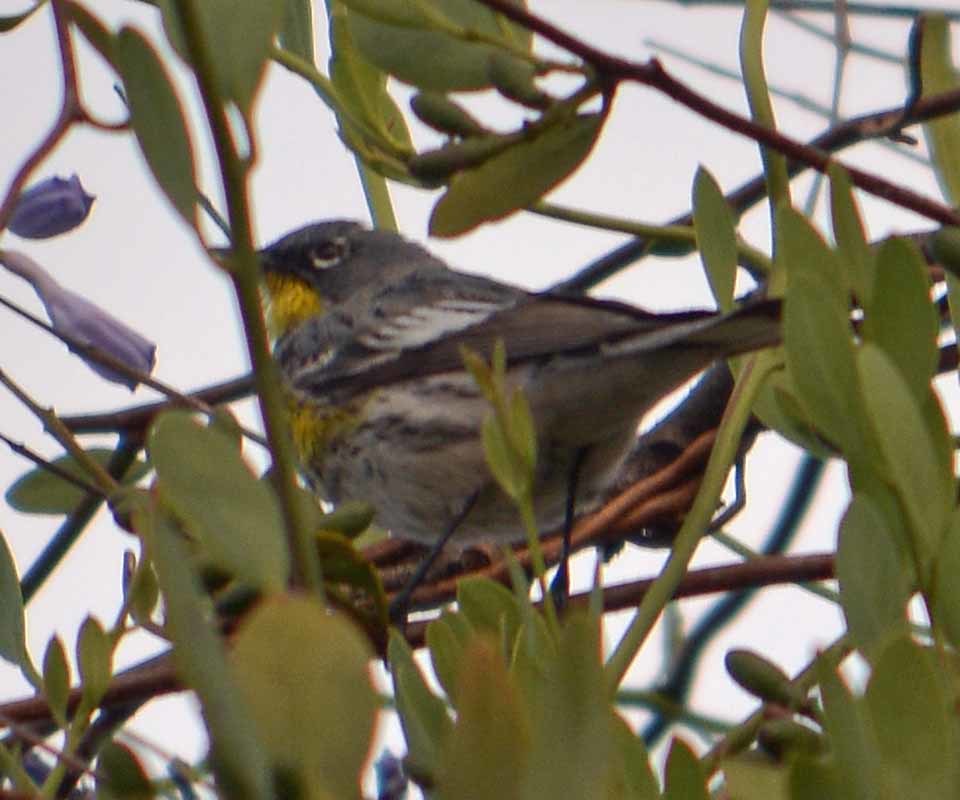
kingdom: Animalia
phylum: Chordata
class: Aves
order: Passeriformes
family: Parulidae
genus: Setophaga
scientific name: Setophaga auduboni
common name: Audubon's warbler
